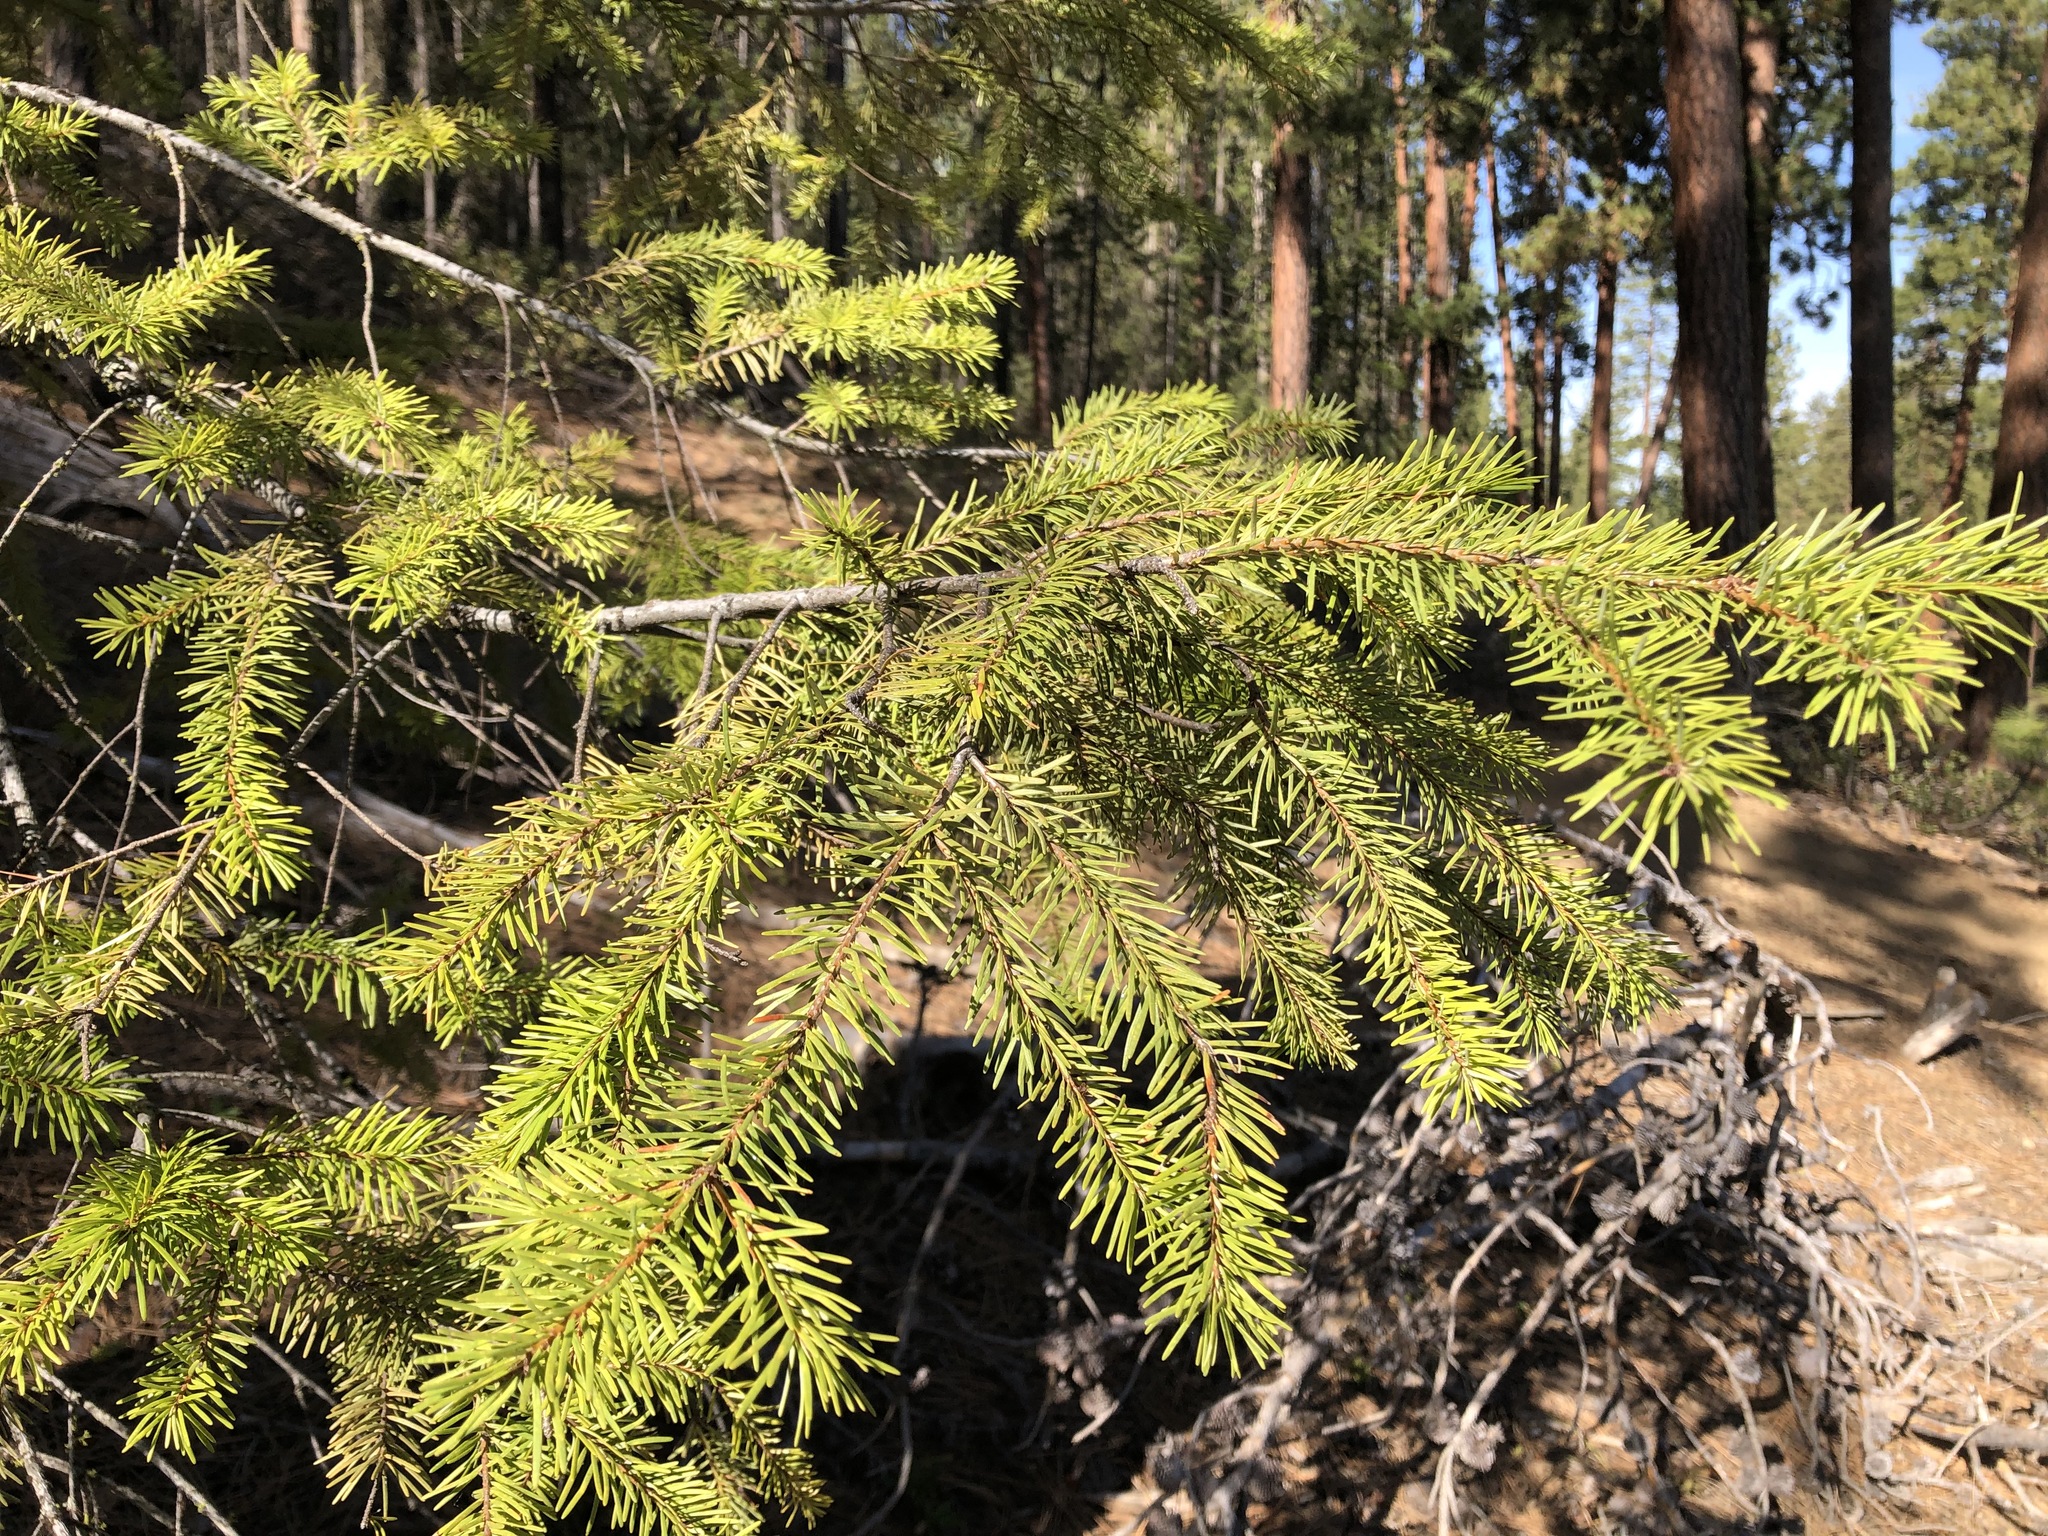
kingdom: Plantae
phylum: Tracheophyta
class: Pinopsida
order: Pinales
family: Pinaceae
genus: Pseudotsuga
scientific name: Pseudotsuga menziesii
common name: Douglas fir
